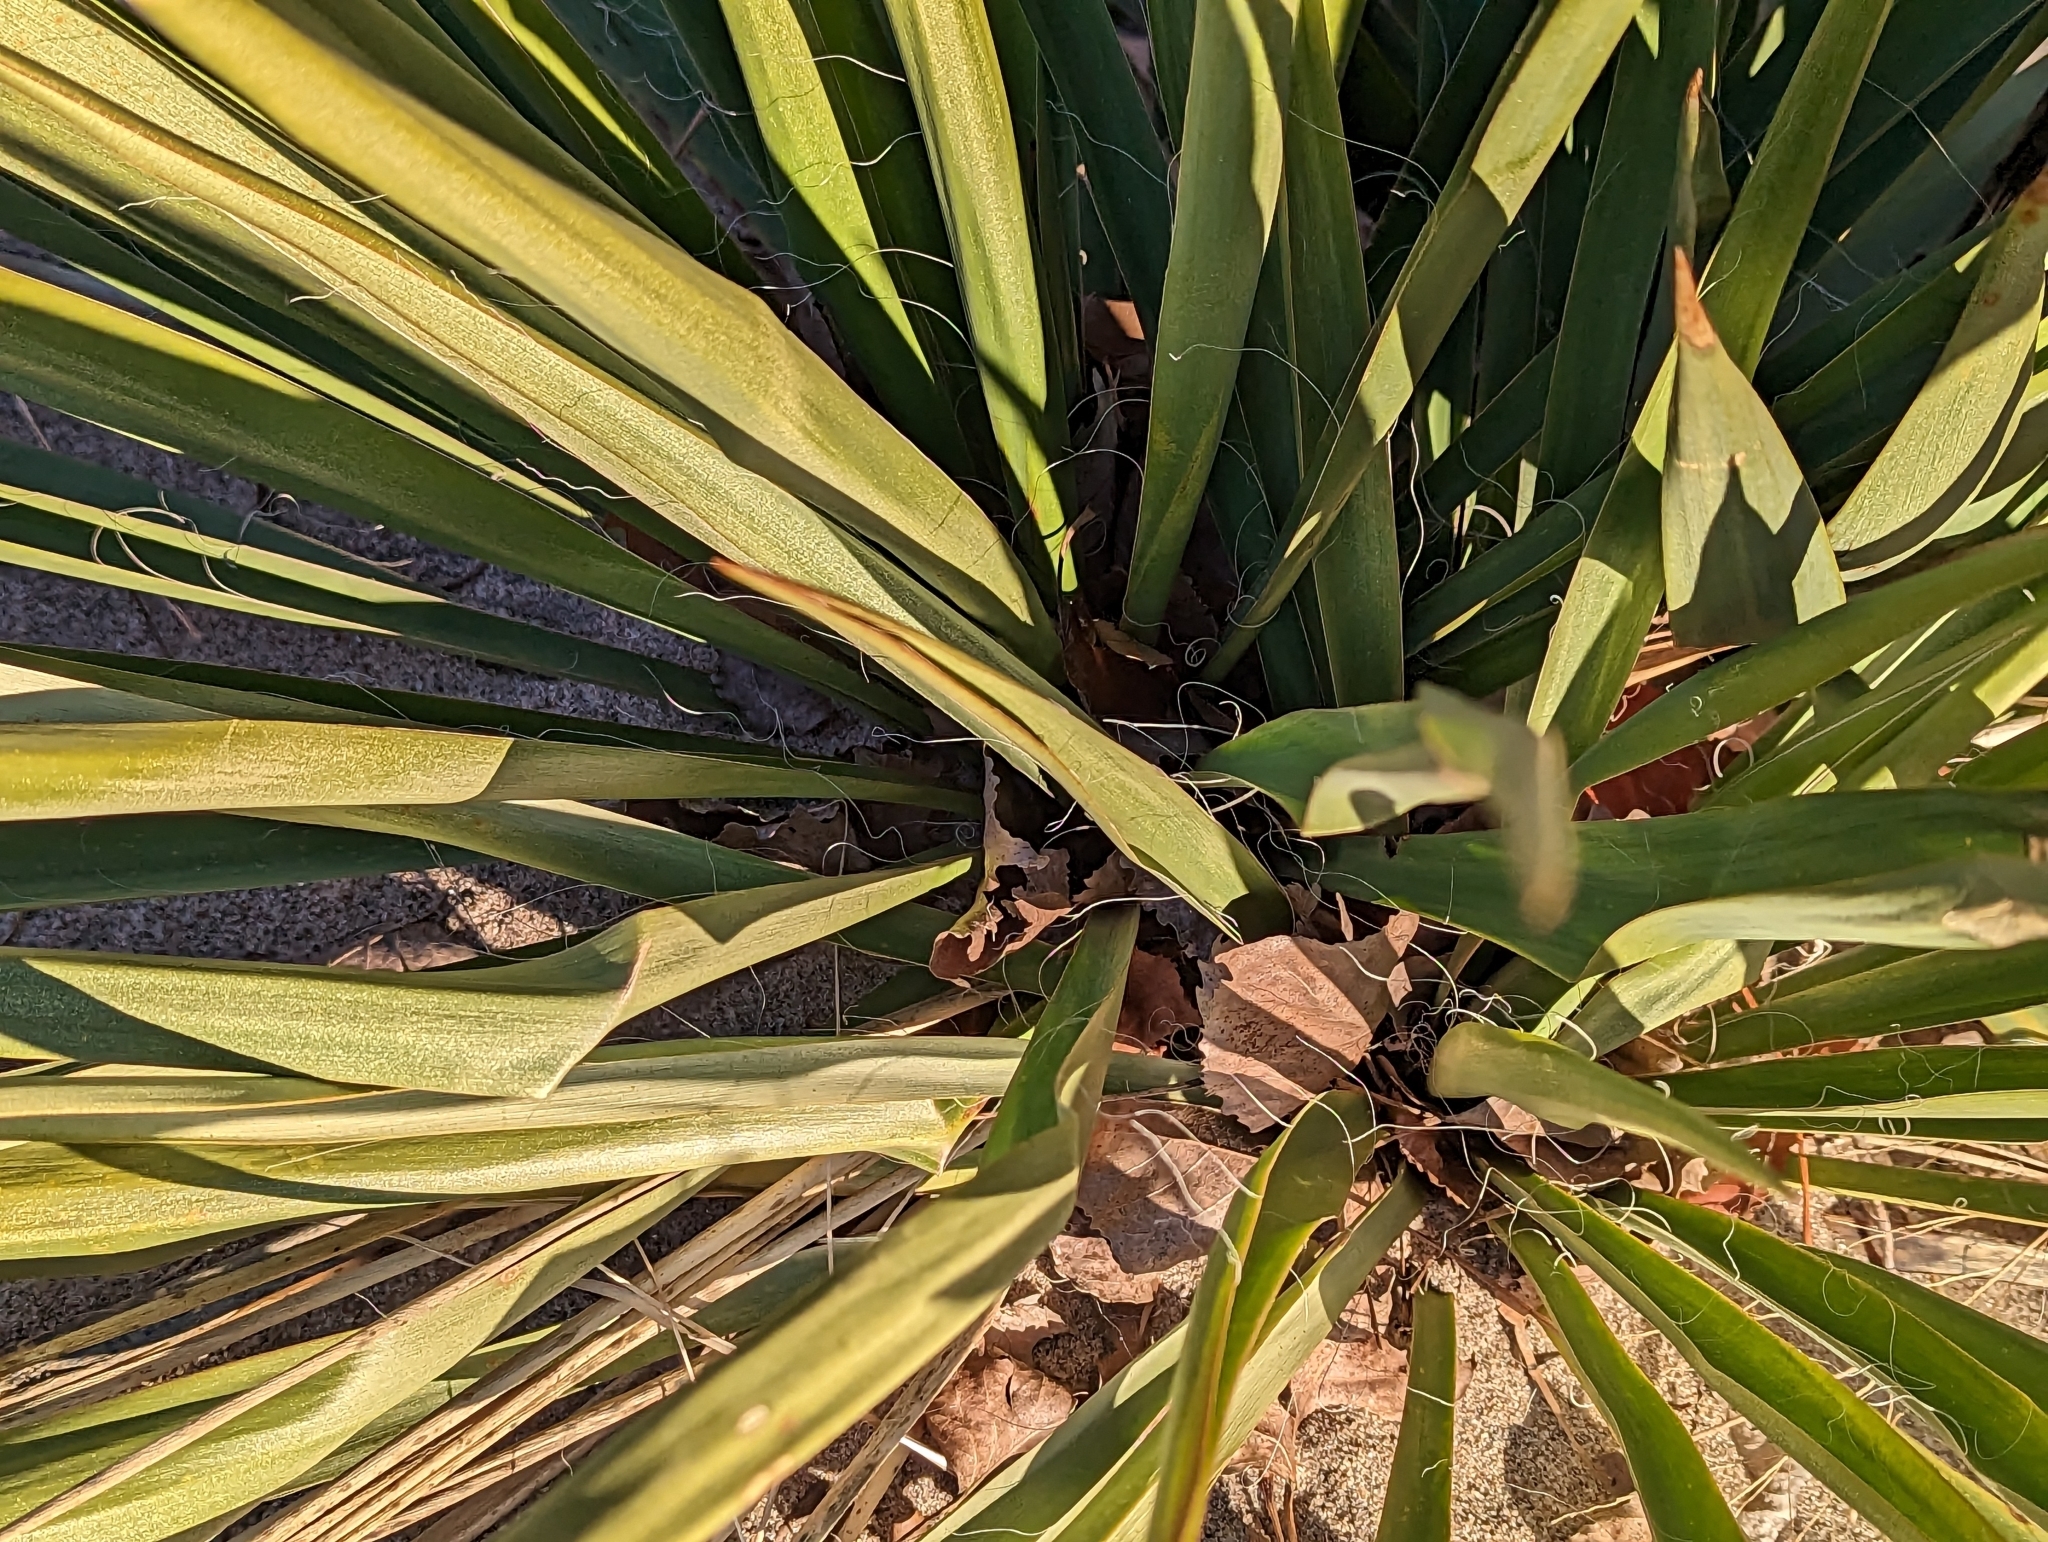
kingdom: Plantae
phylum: Tracheophyta
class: Liliopsida
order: Asparagales
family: Asparagaceae
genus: Yucca
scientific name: Yucca filamentosa
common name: Adam's-needle
